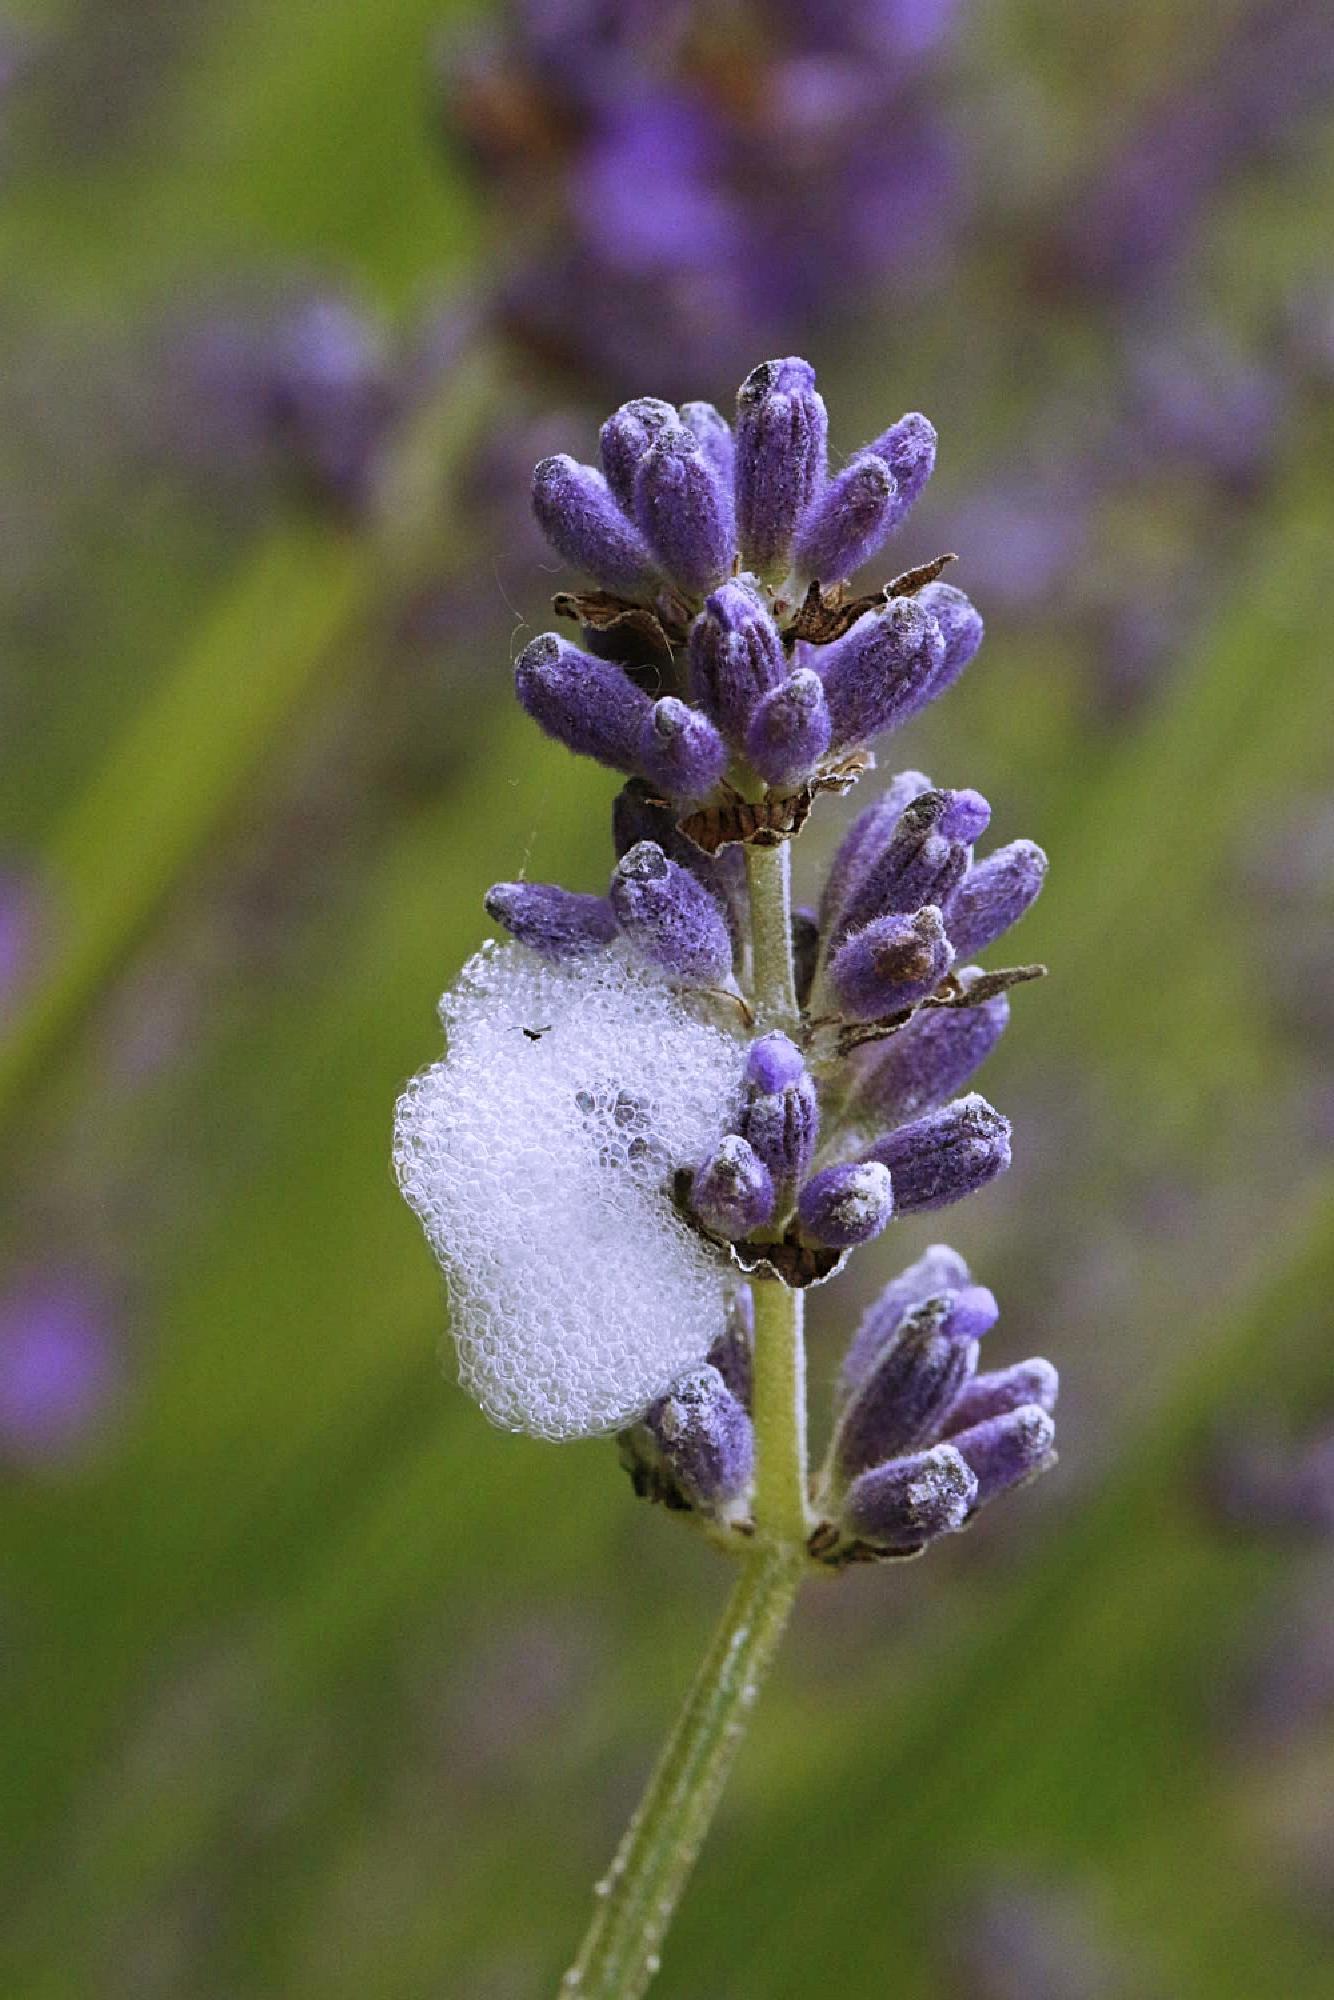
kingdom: Animalia
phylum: Arthropoda
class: Insecta
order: Hemiptera
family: Aphrophoridae
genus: Philaenus
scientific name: Philaenus spumarius
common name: Meadow spittlebug
